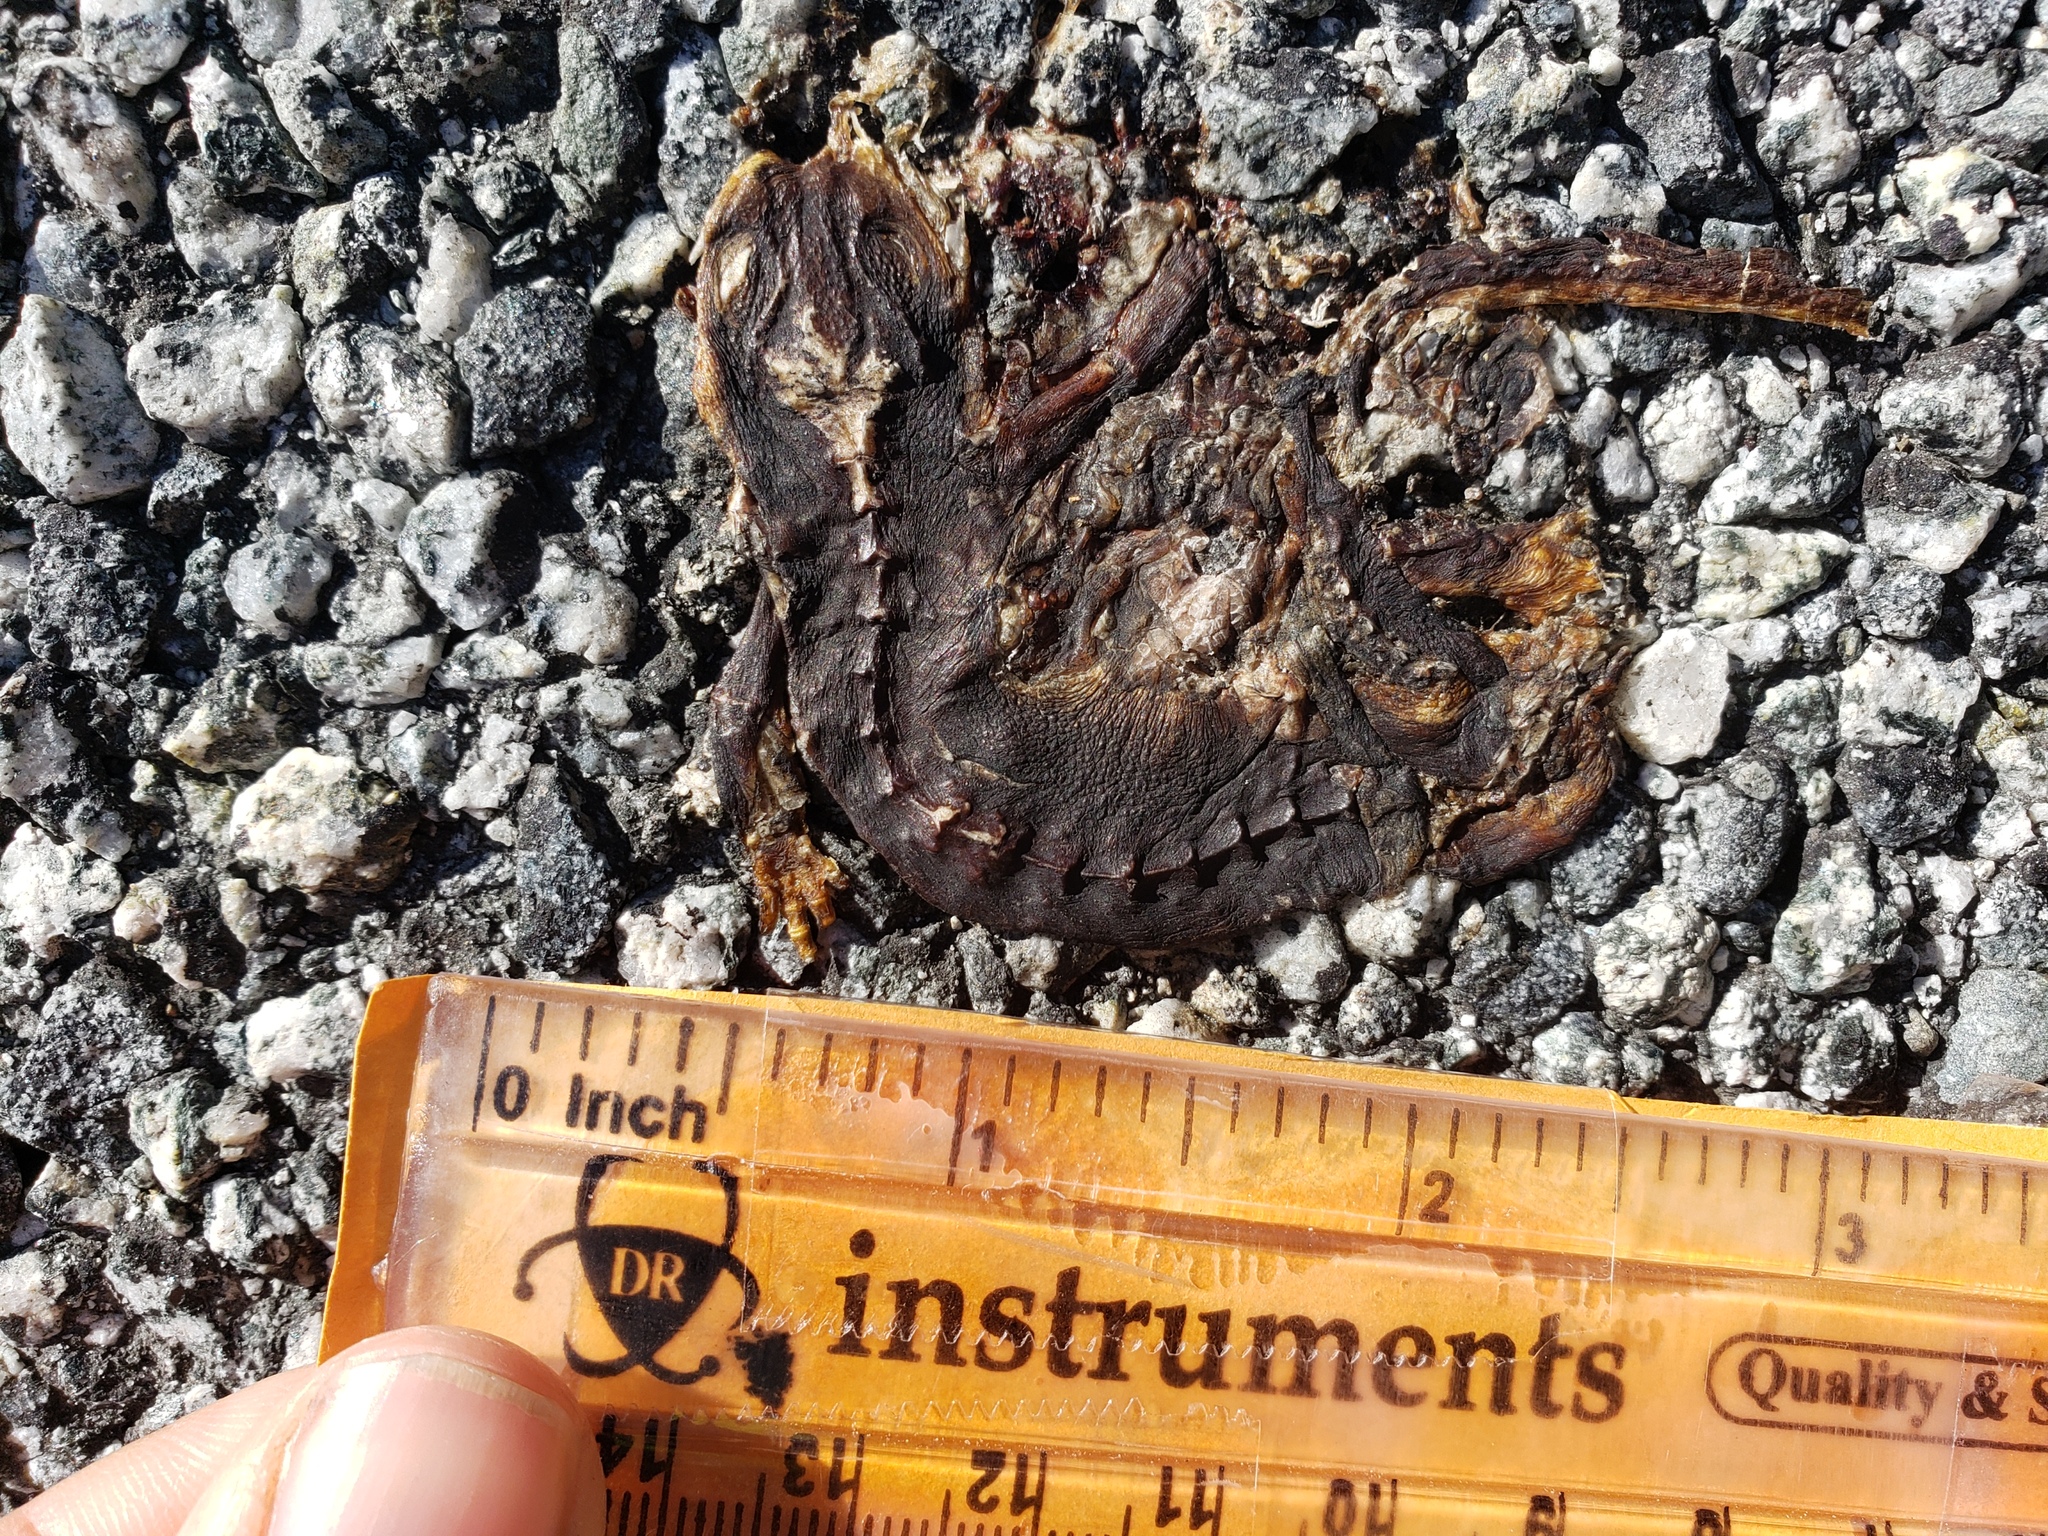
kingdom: Animalia
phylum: Chordata
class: Amphibia
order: Caudata
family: Salamandridae
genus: Taricha
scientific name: Taricha
